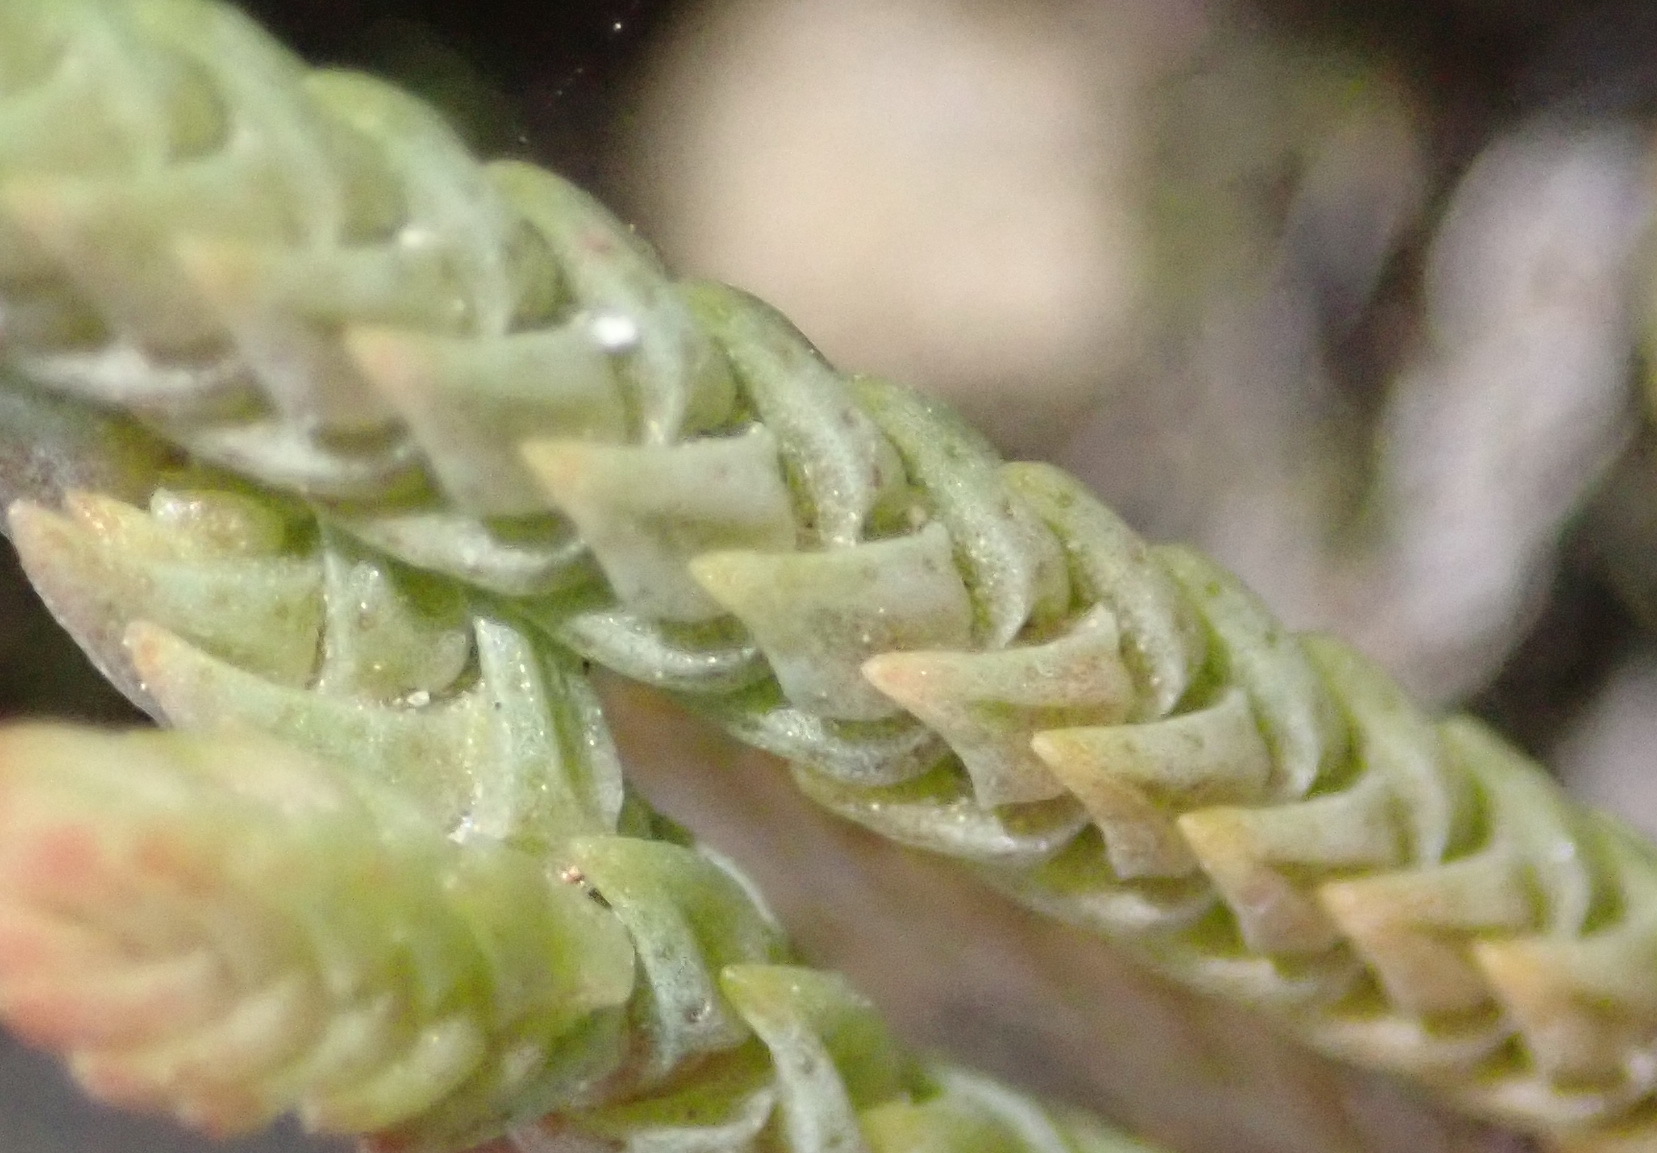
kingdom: Plantae
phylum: Tracheophyta
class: Magnoliopsida
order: Saxifragales
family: Crassulaceae
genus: Crassula
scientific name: Crassula muscosa
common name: Toy-cypress
